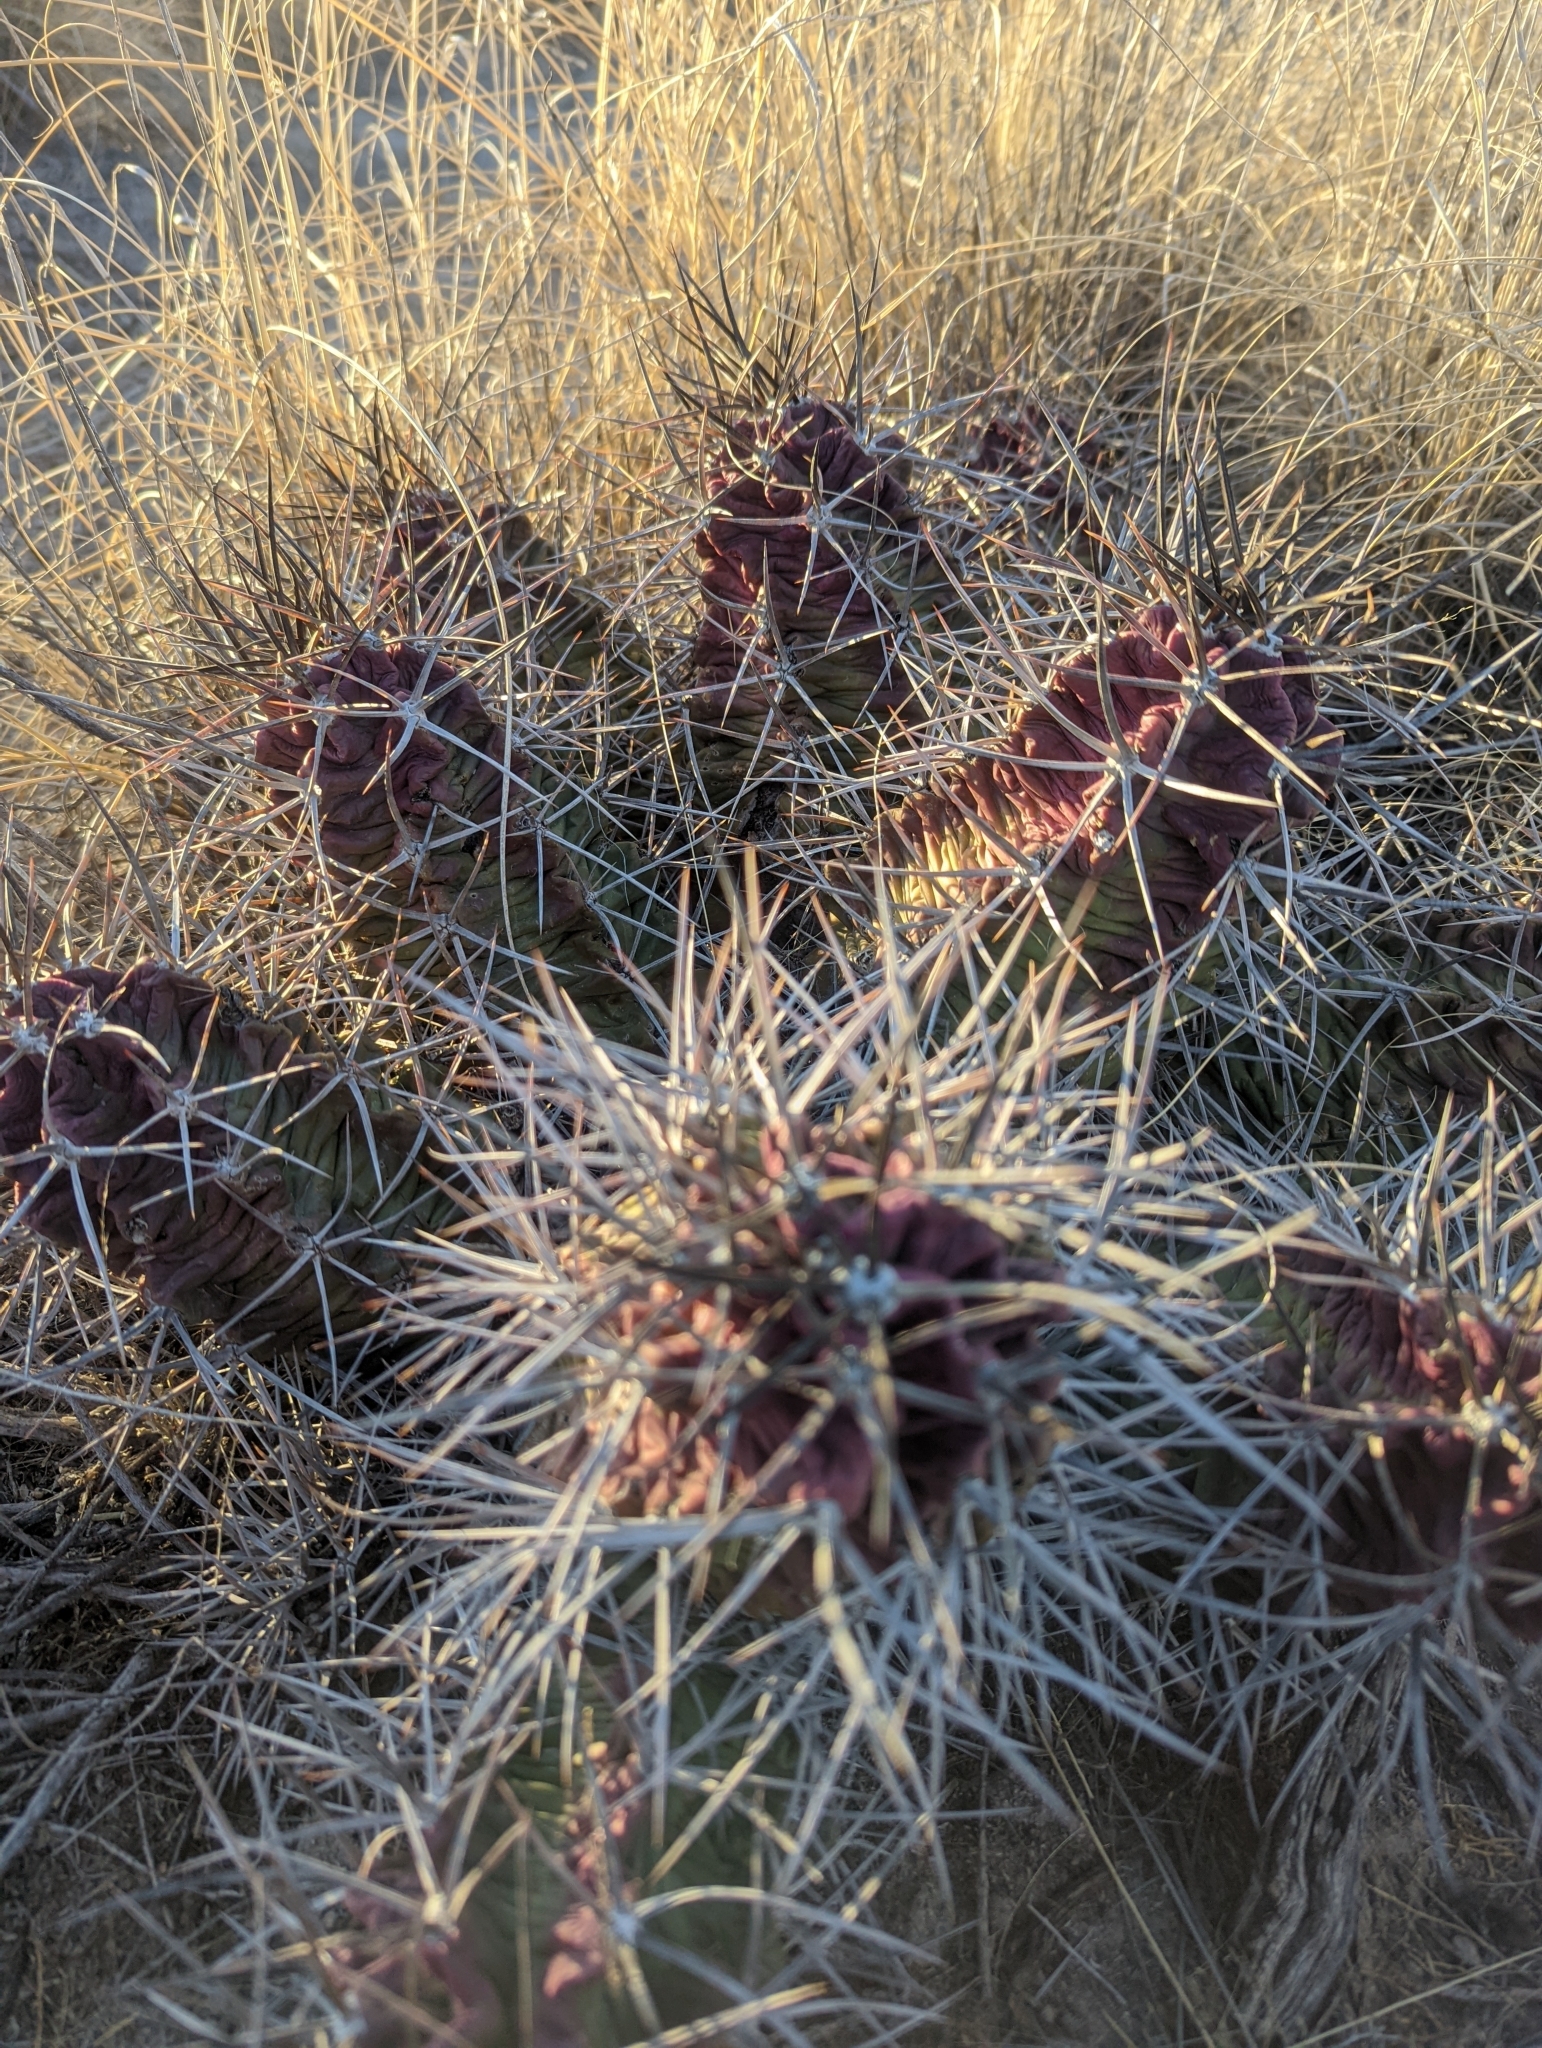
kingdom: Plantae
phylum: Tracheophyta
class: Magnoliopsida
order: Caryophyllales
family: Cactaceae
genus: Echinocereus
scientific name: Echinocereus triglochidiatus
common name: Claretcup hedgehog
